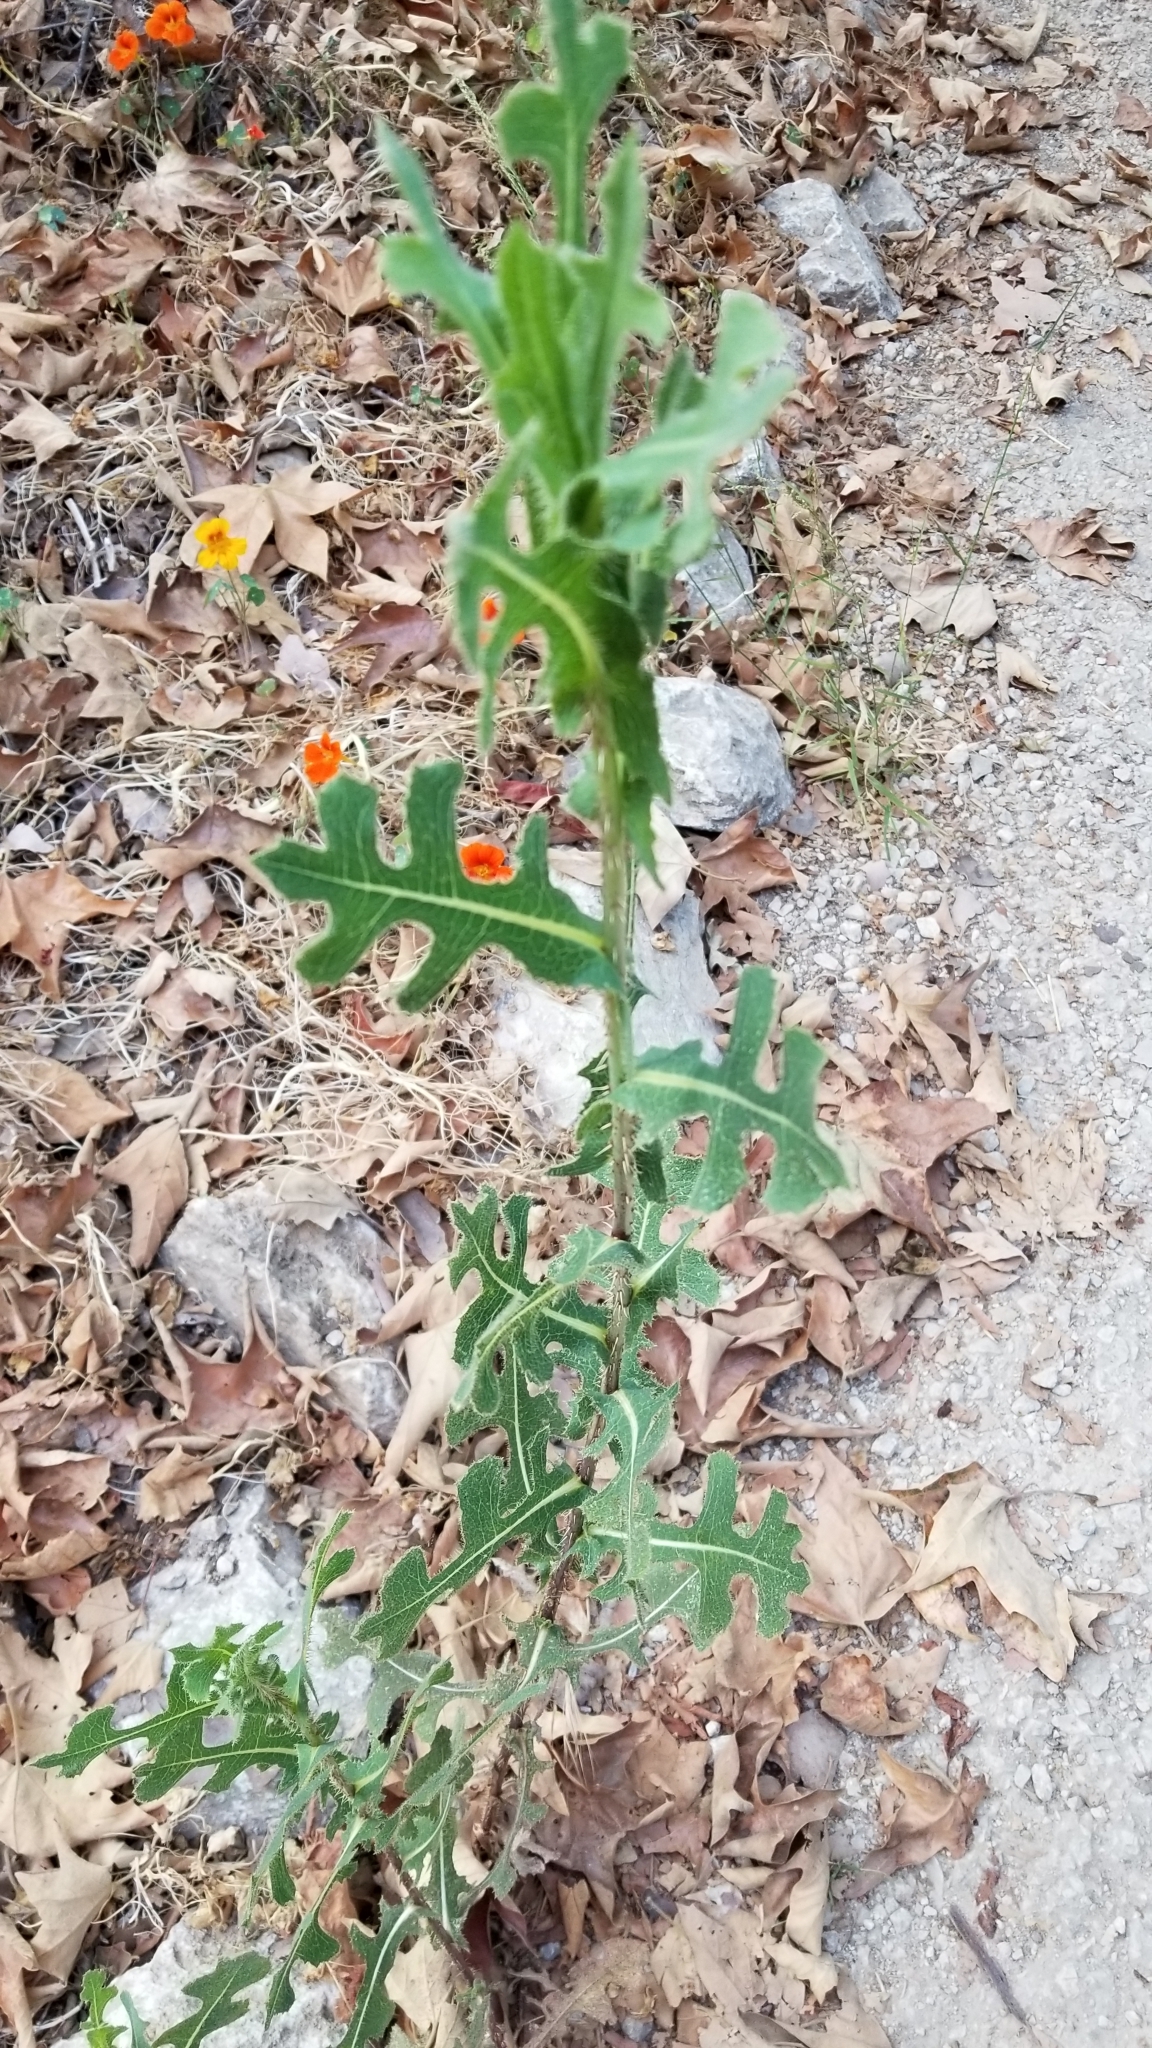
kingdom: Plantae
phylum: Tracheophyta
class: Magnoliopsida
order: Asterales
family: Asteraceae
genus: Lactuca
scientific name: Lactuca serriola
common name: Prickly lettuce
